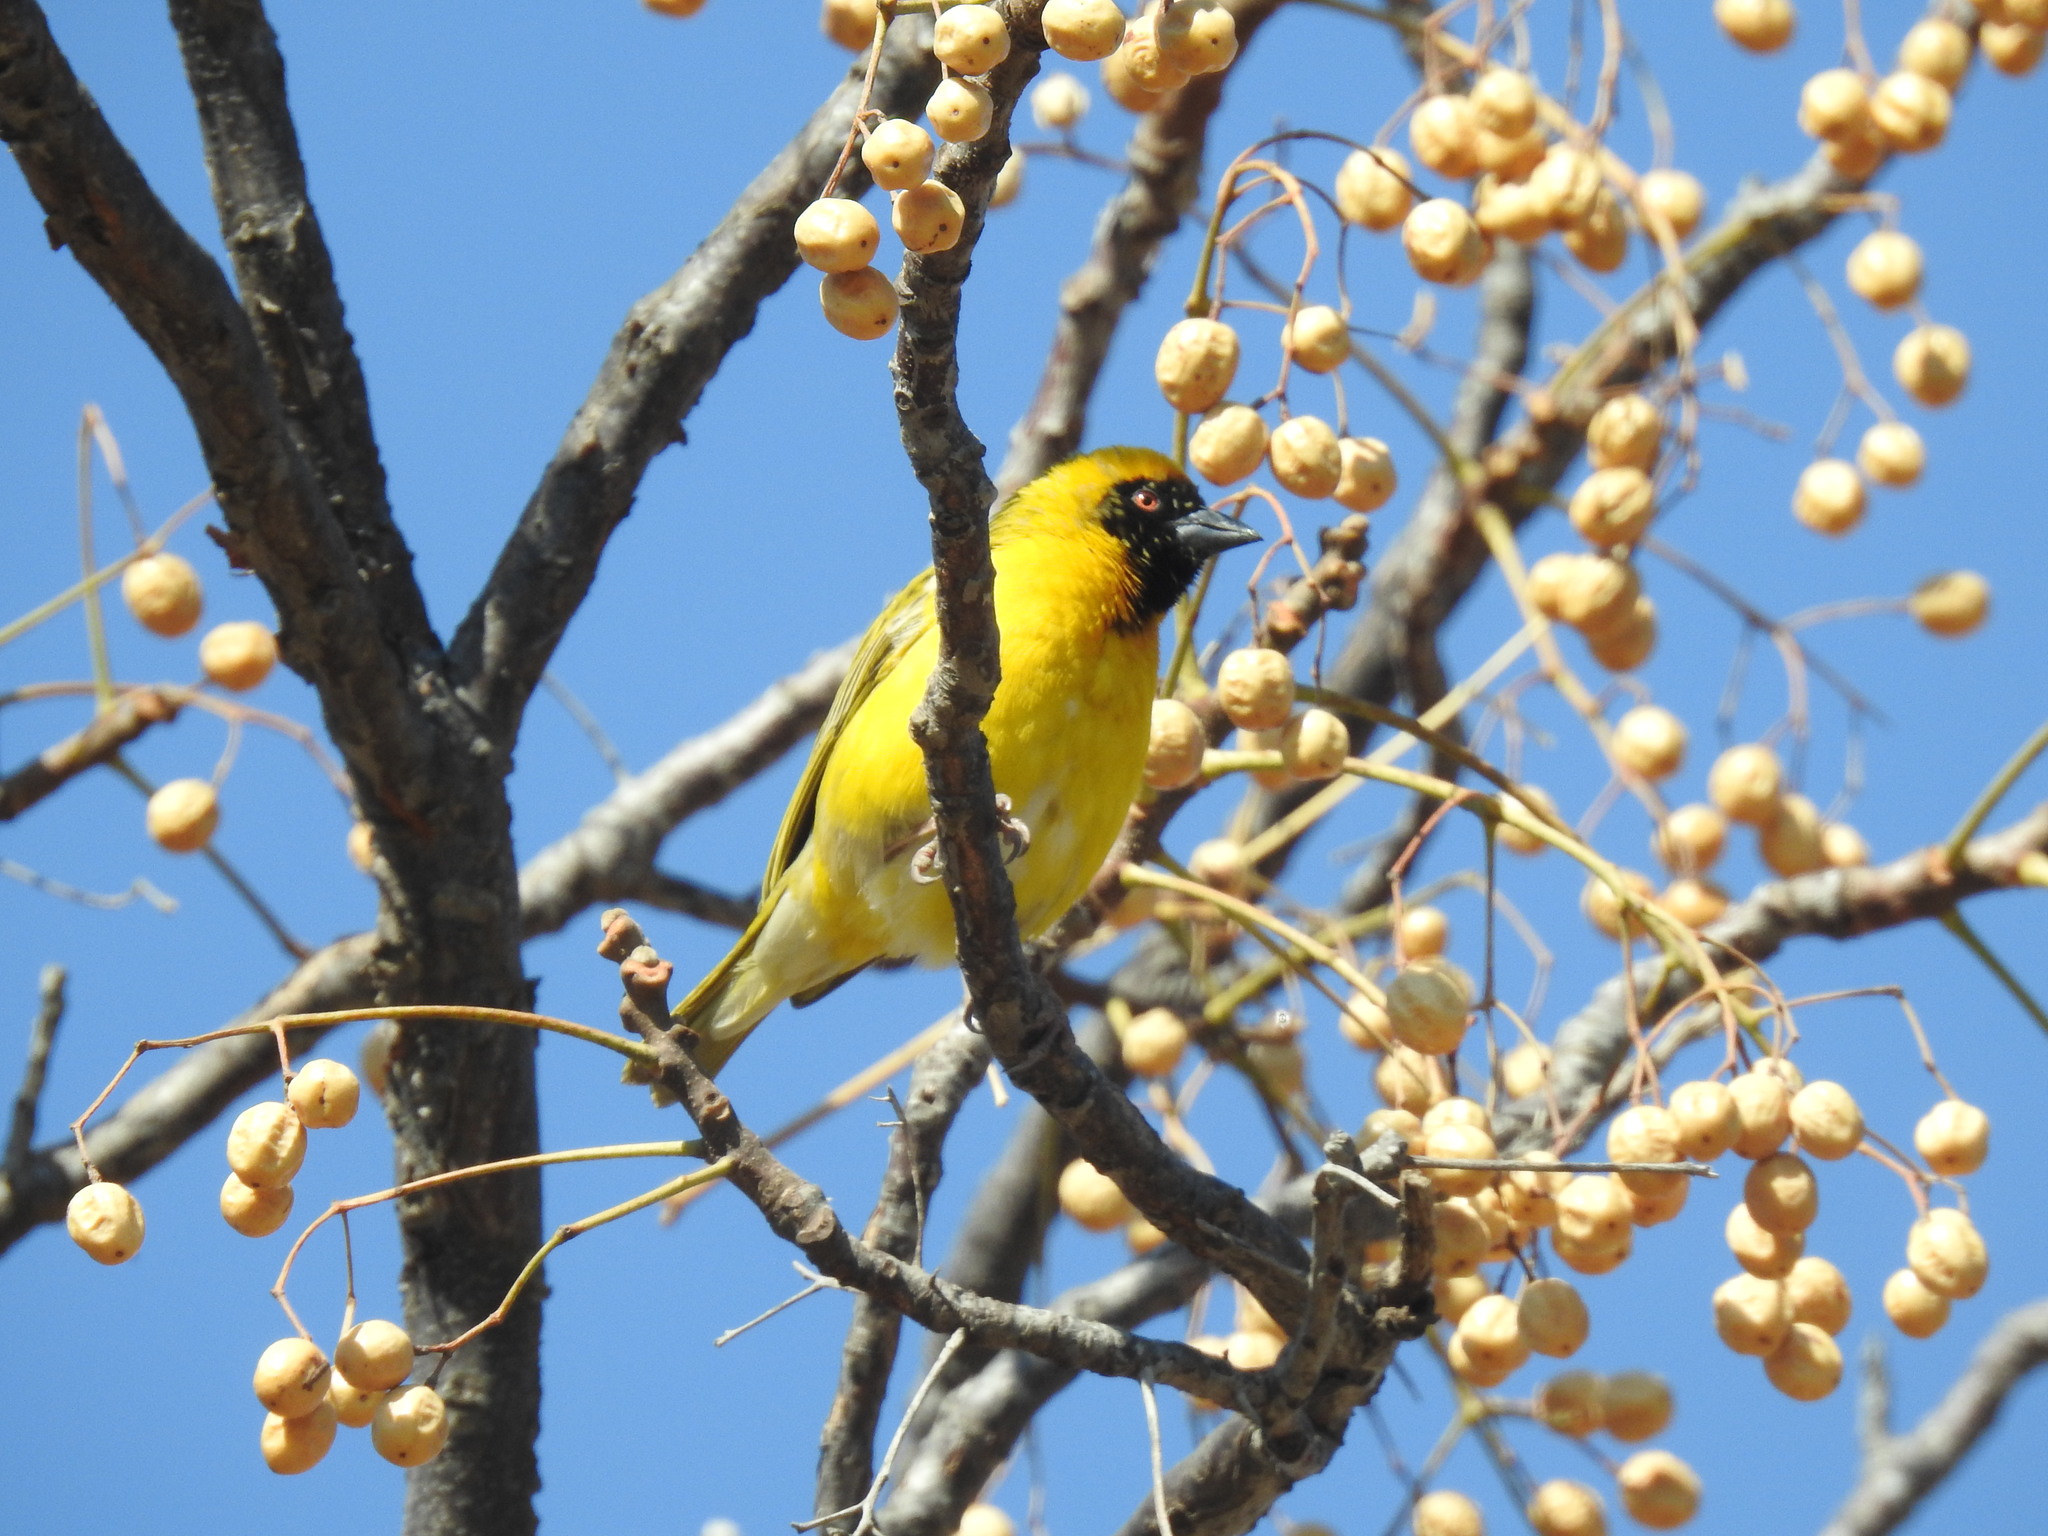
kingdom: Animalia
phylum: Chordata
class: Aves
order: Passeriformes
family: Ploceidae
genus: Ploceus
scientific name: Ploceus velatus
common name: Southern masked weaver
